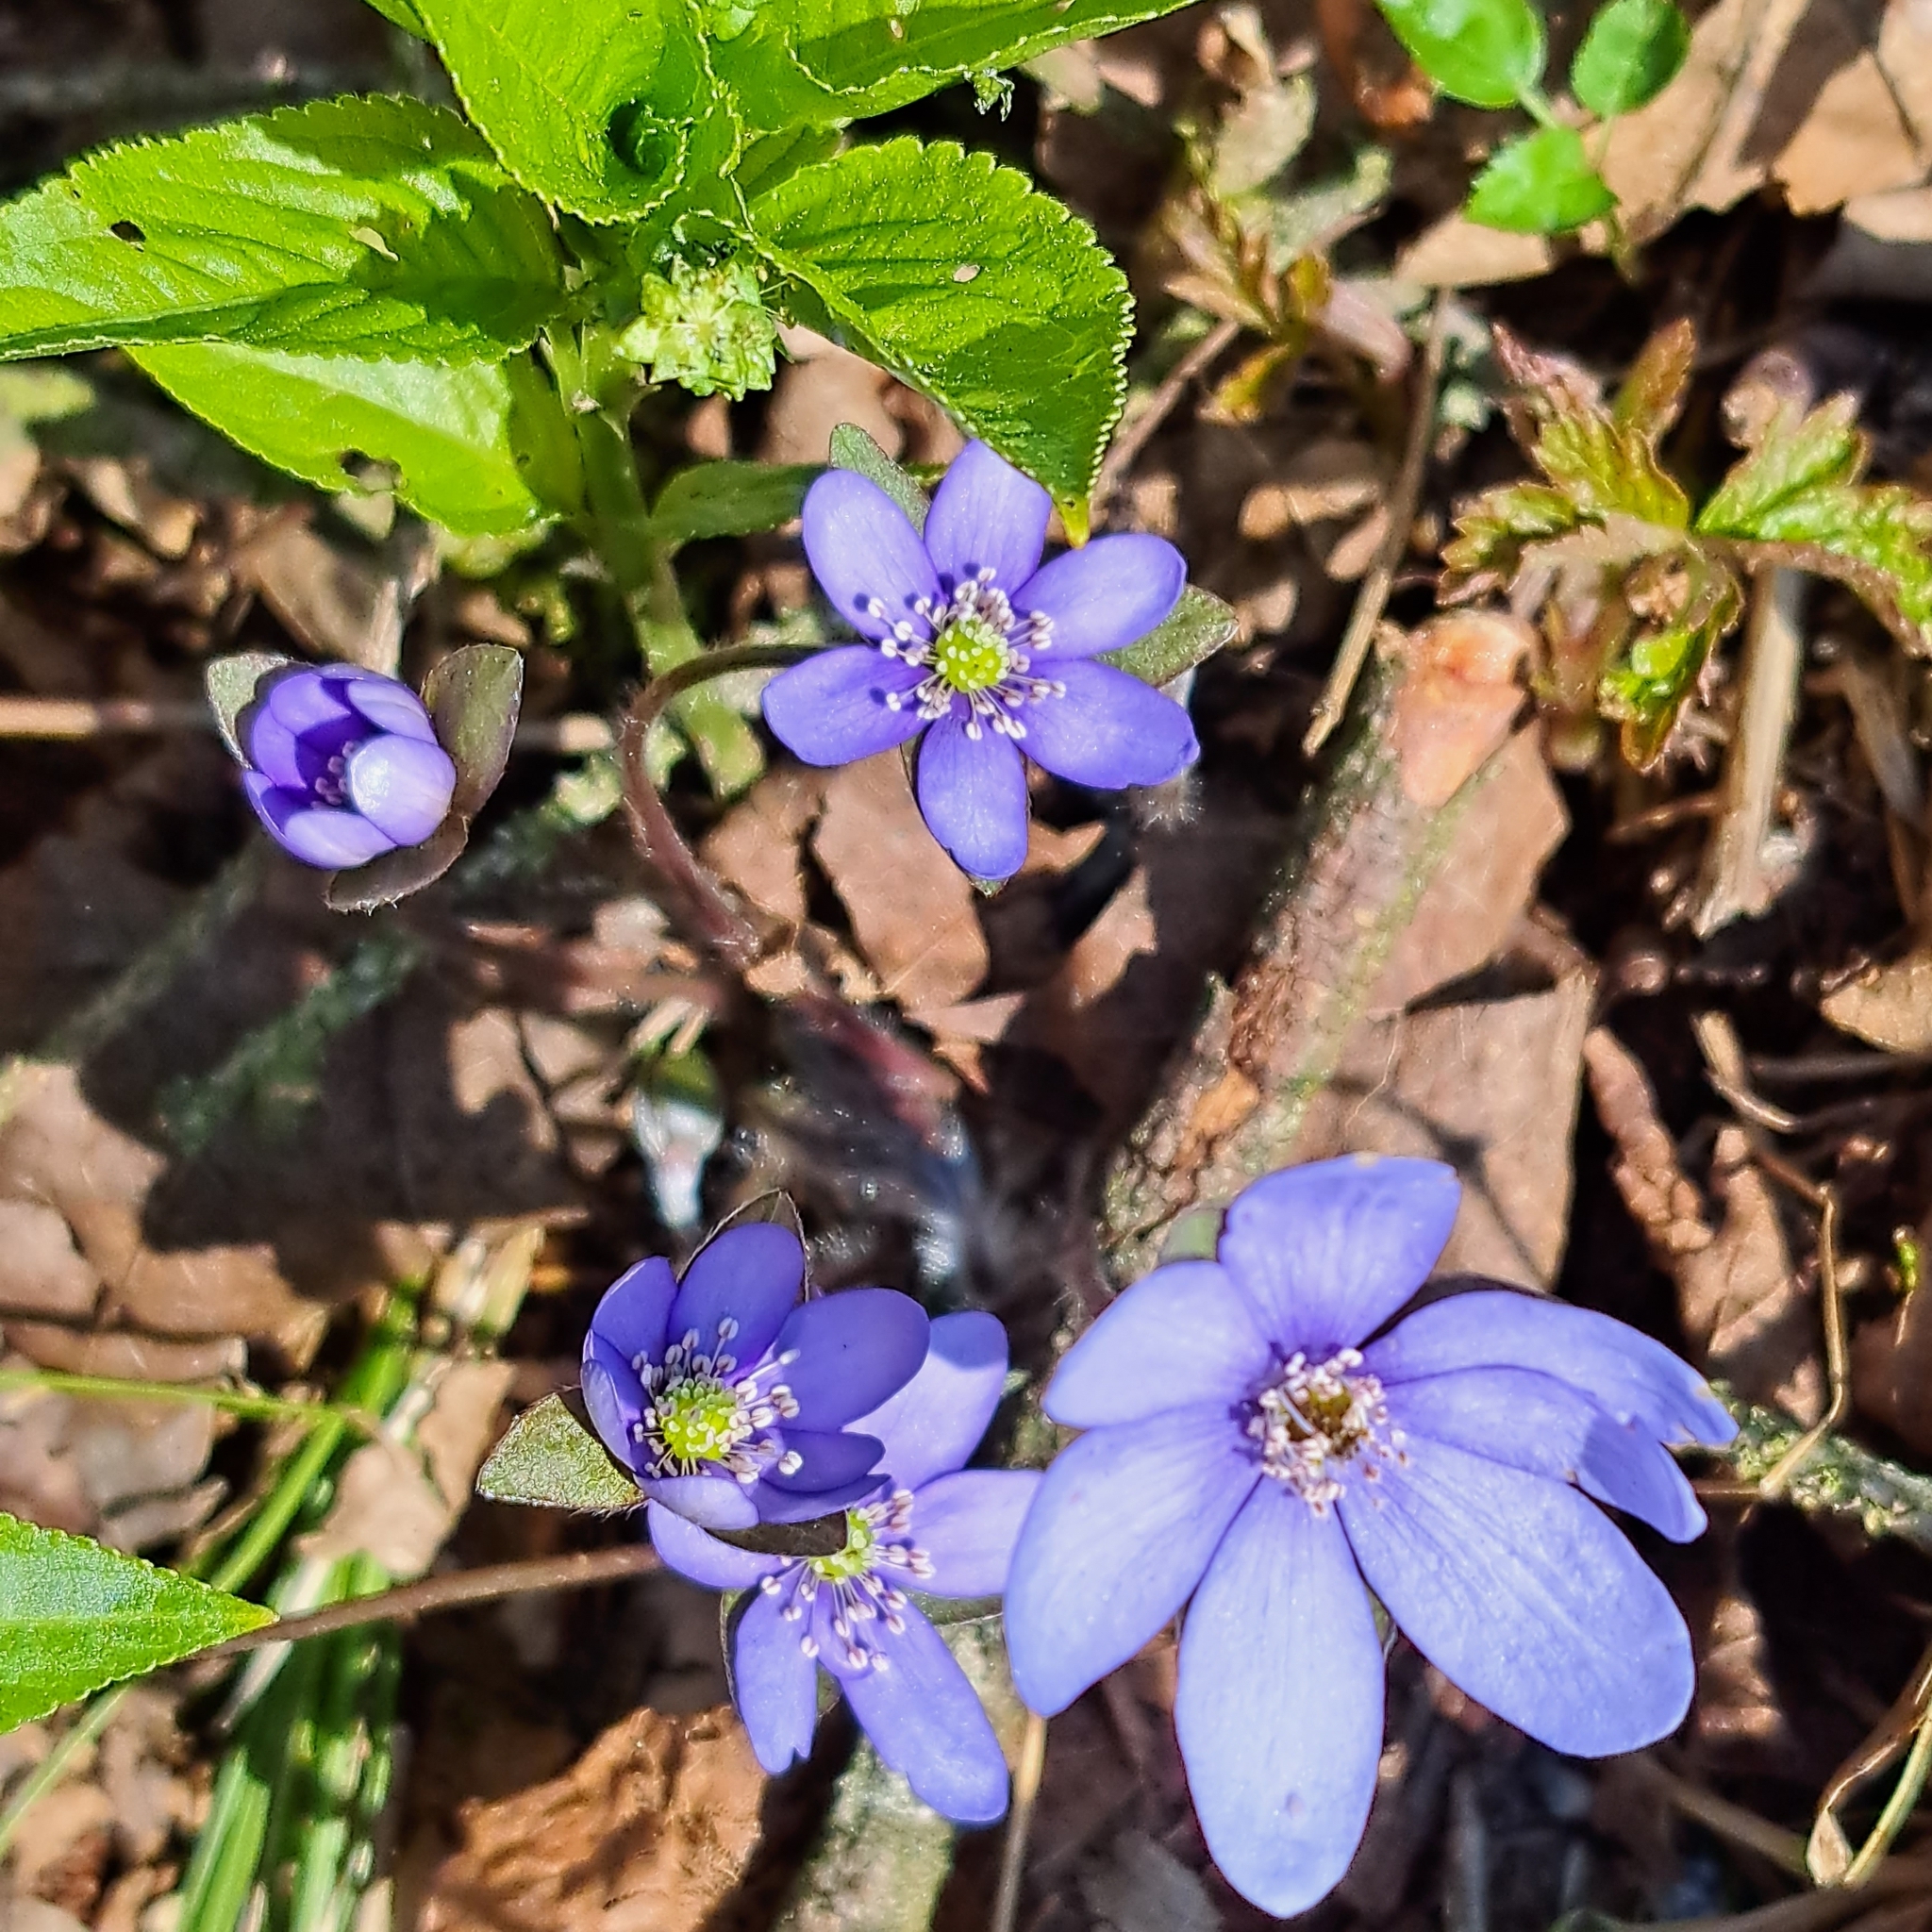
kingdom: Plantae
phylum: Tracheophyta
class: Magnoliopsida
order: Ranunculales
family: Ranunculaceae
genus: Hepatica
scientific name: Hepatica nobilis
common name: Liverleaf
